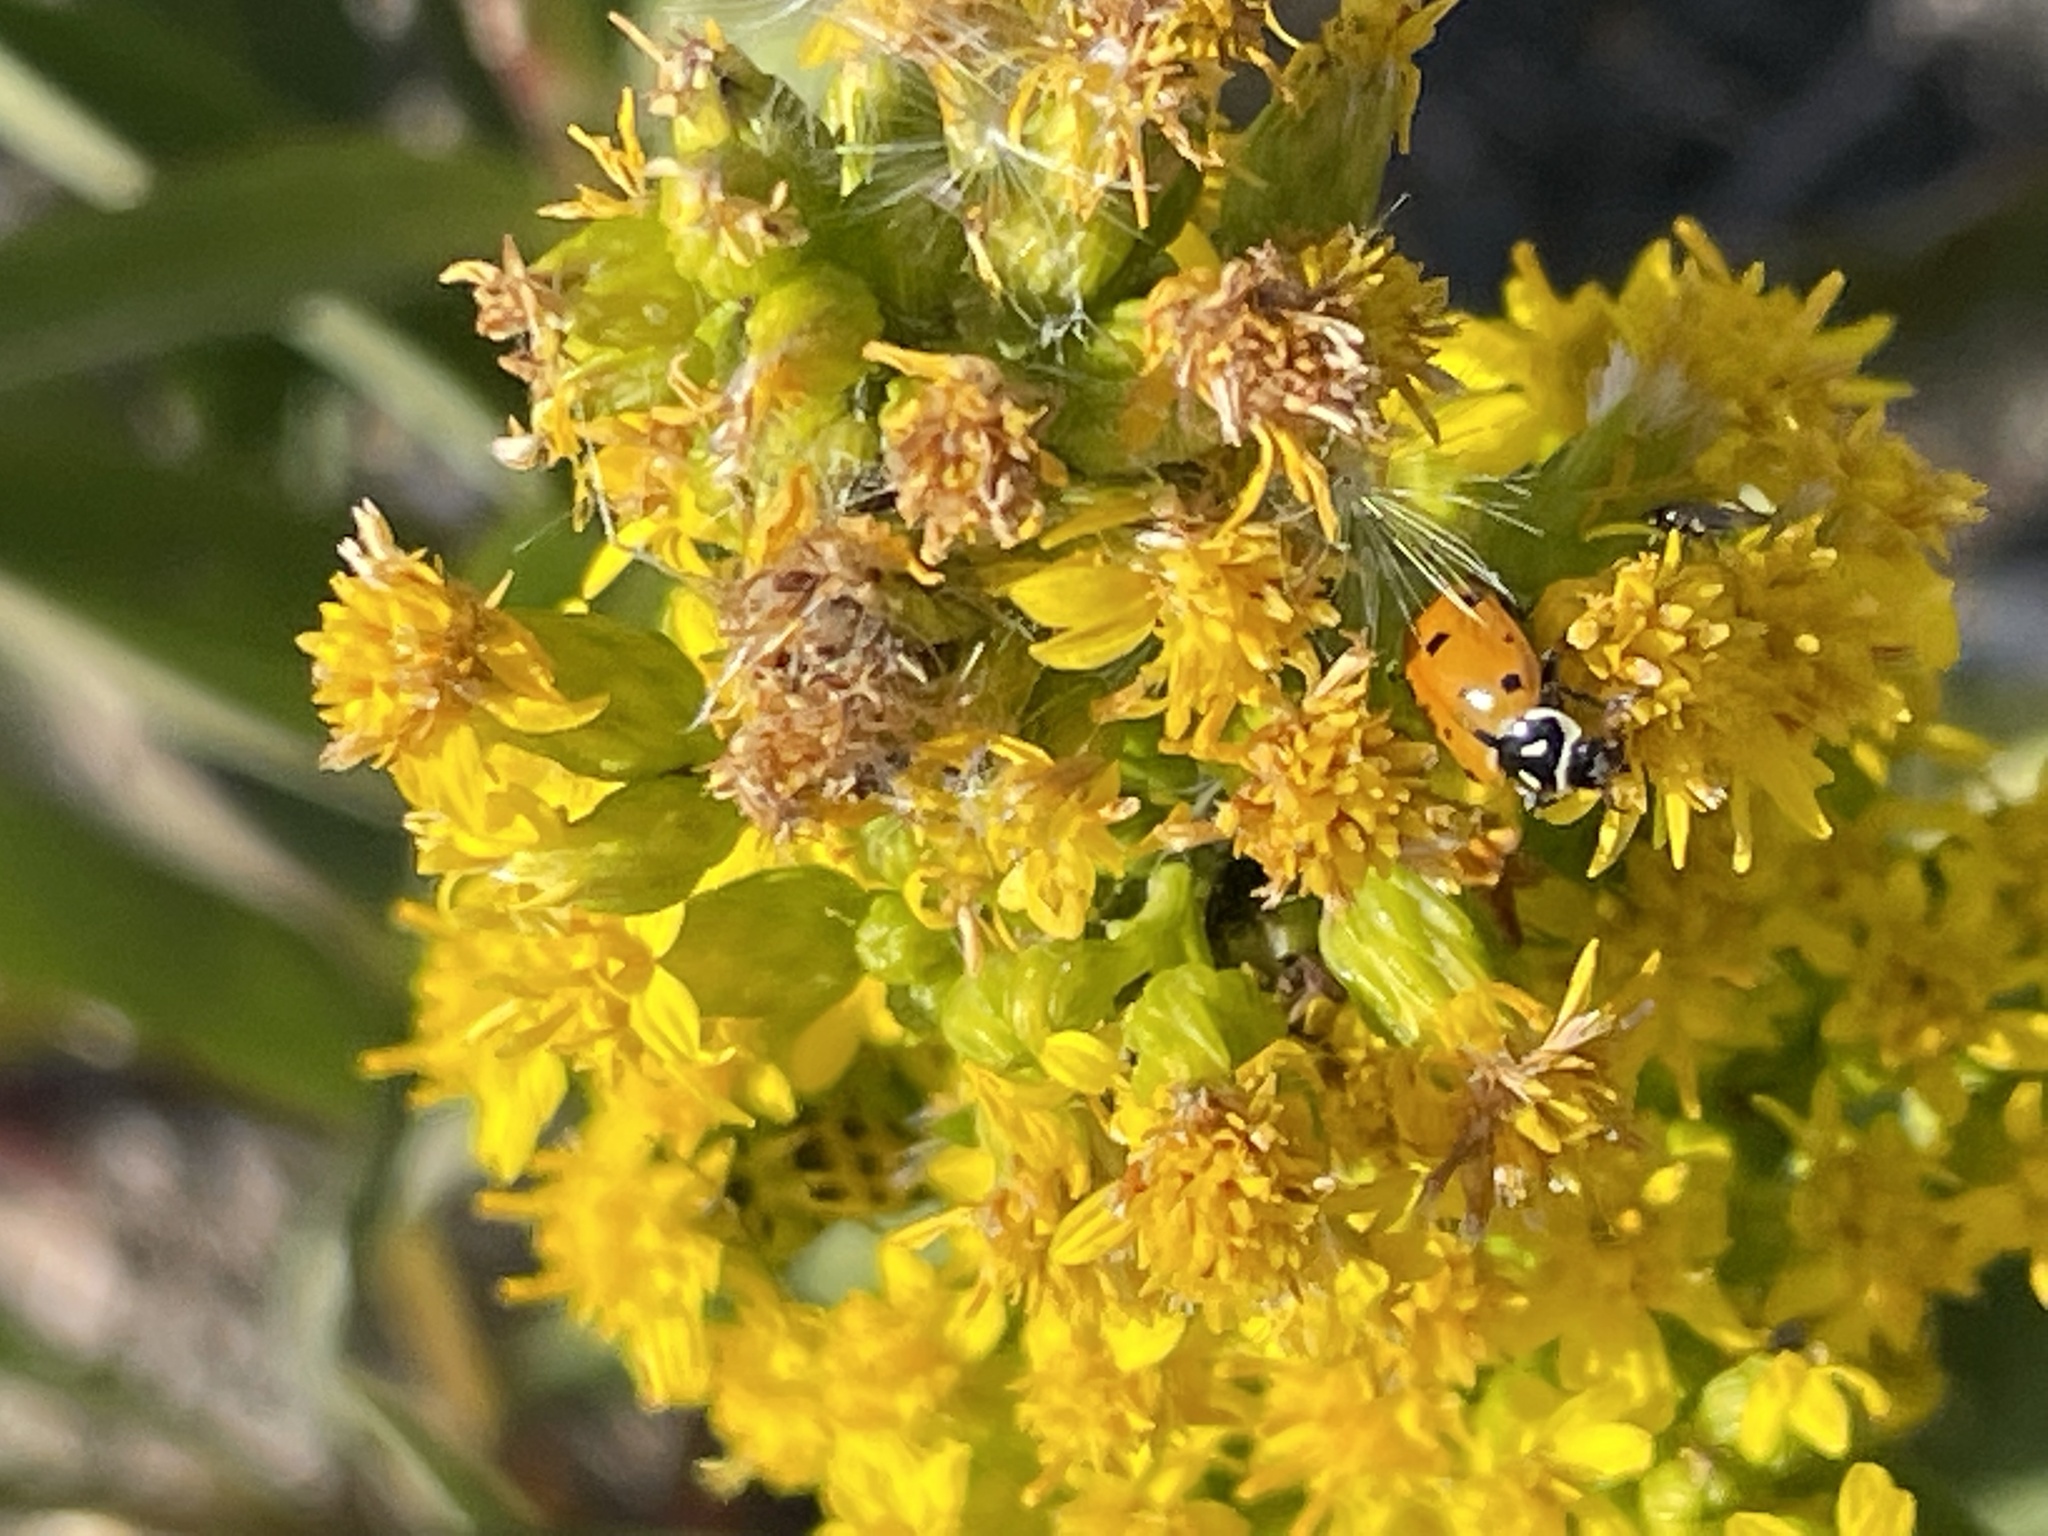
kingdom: Animalia
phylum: Arthropoda
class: Insecta
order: Coleoptera
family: Coccinellidae
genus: Hippodamia
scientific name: Hippodamia convergens
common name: Convergent lady beetle
